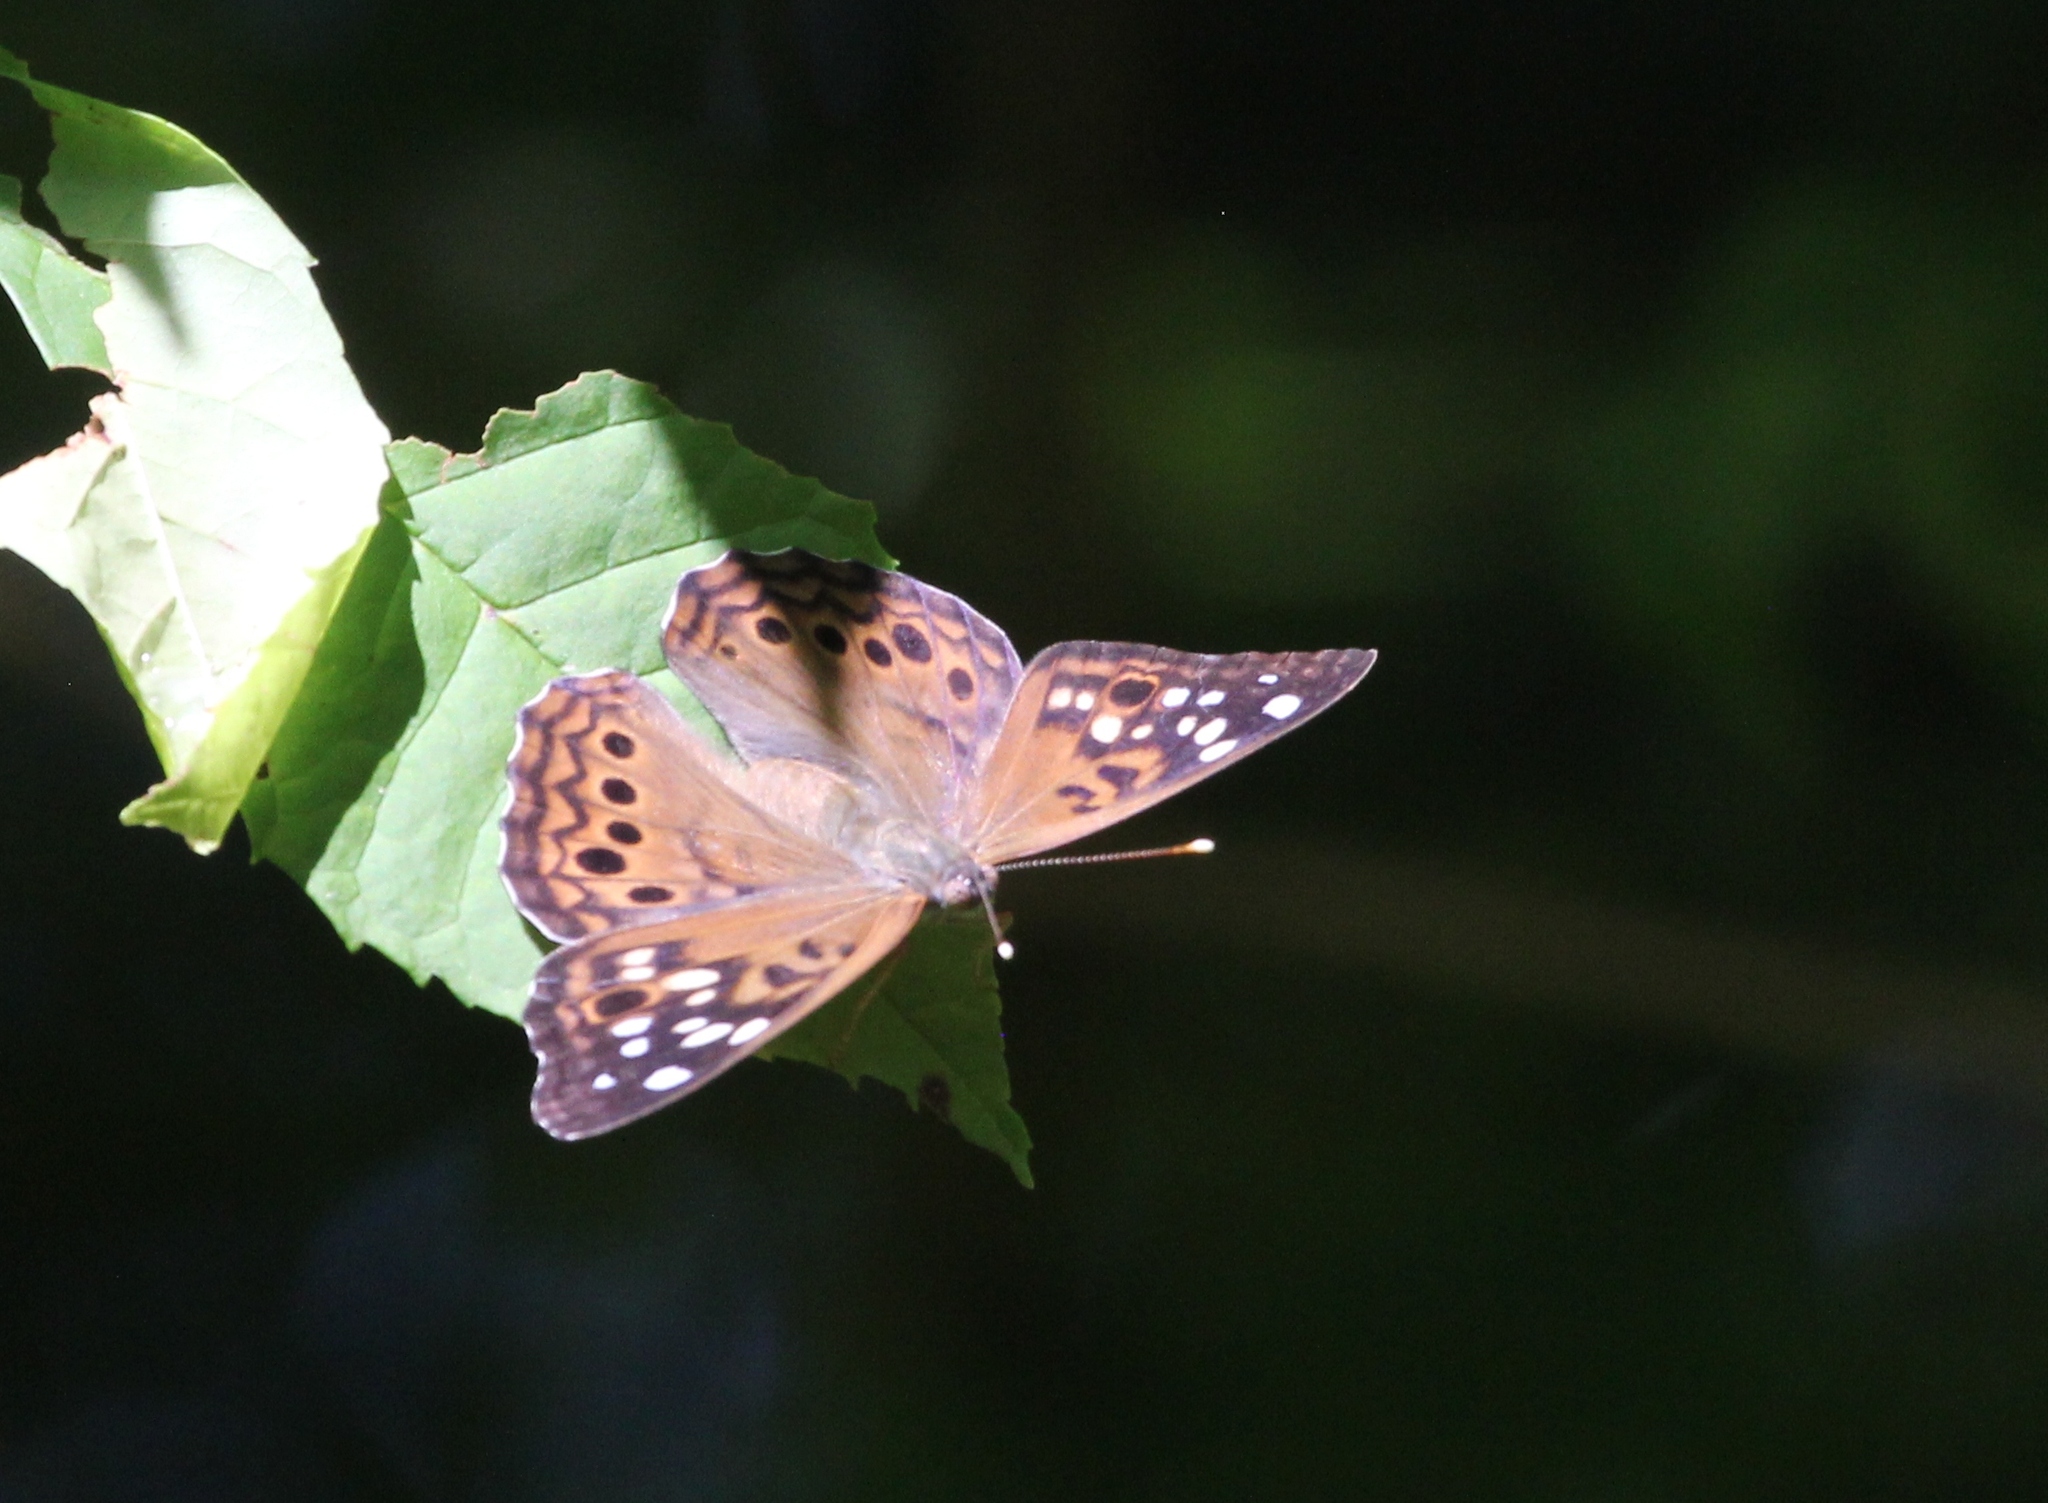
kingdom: Animalia
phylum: Arthropoda
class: Insecta
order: Lepidoptera
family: Nymphalidae
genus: Asterocampa
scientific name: Asterocampa celtis
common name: Hackberry emperor
